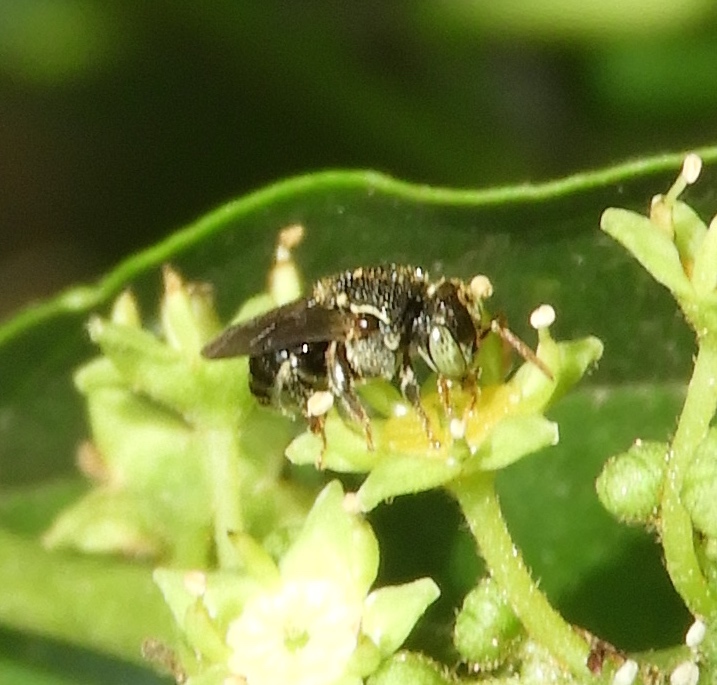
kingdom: Animalia
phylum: Arthropoda
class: Insecta
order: Hymenoptera
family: Apidae
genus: Nannotrigona
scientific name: Nannotrigona perilampoides
